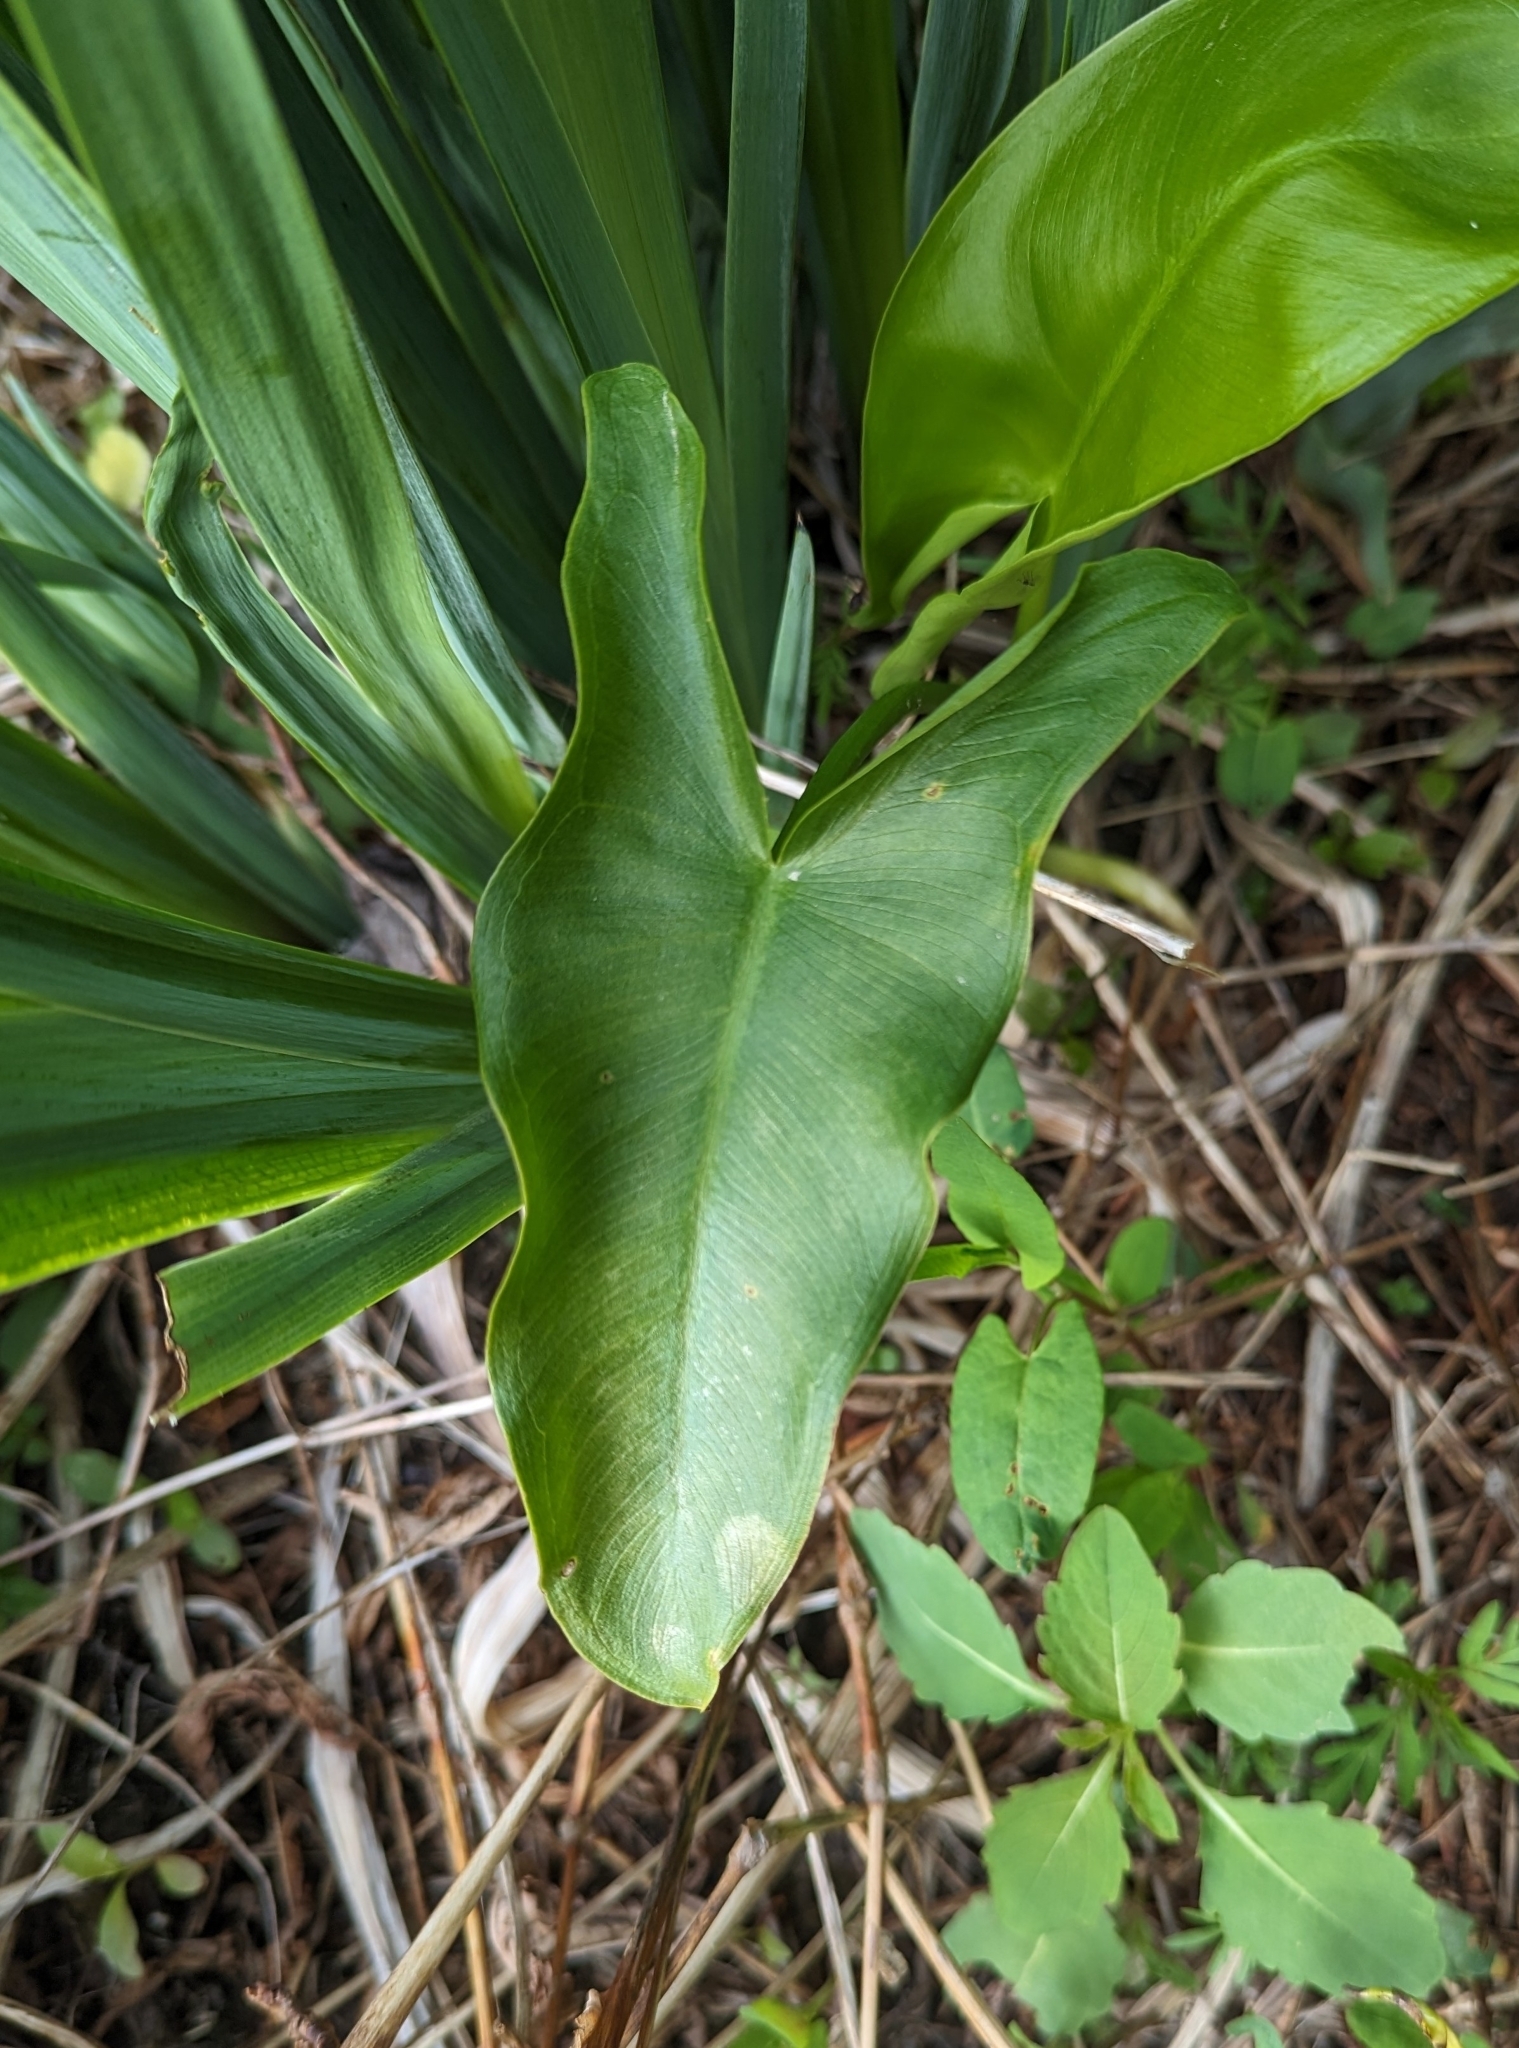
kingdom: Plantae
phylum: Tracheophyta
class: Liliopsida
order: Alismatales
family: Araceae
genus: Peltandra
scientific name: Peltandra virginica
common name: Arrow arum
